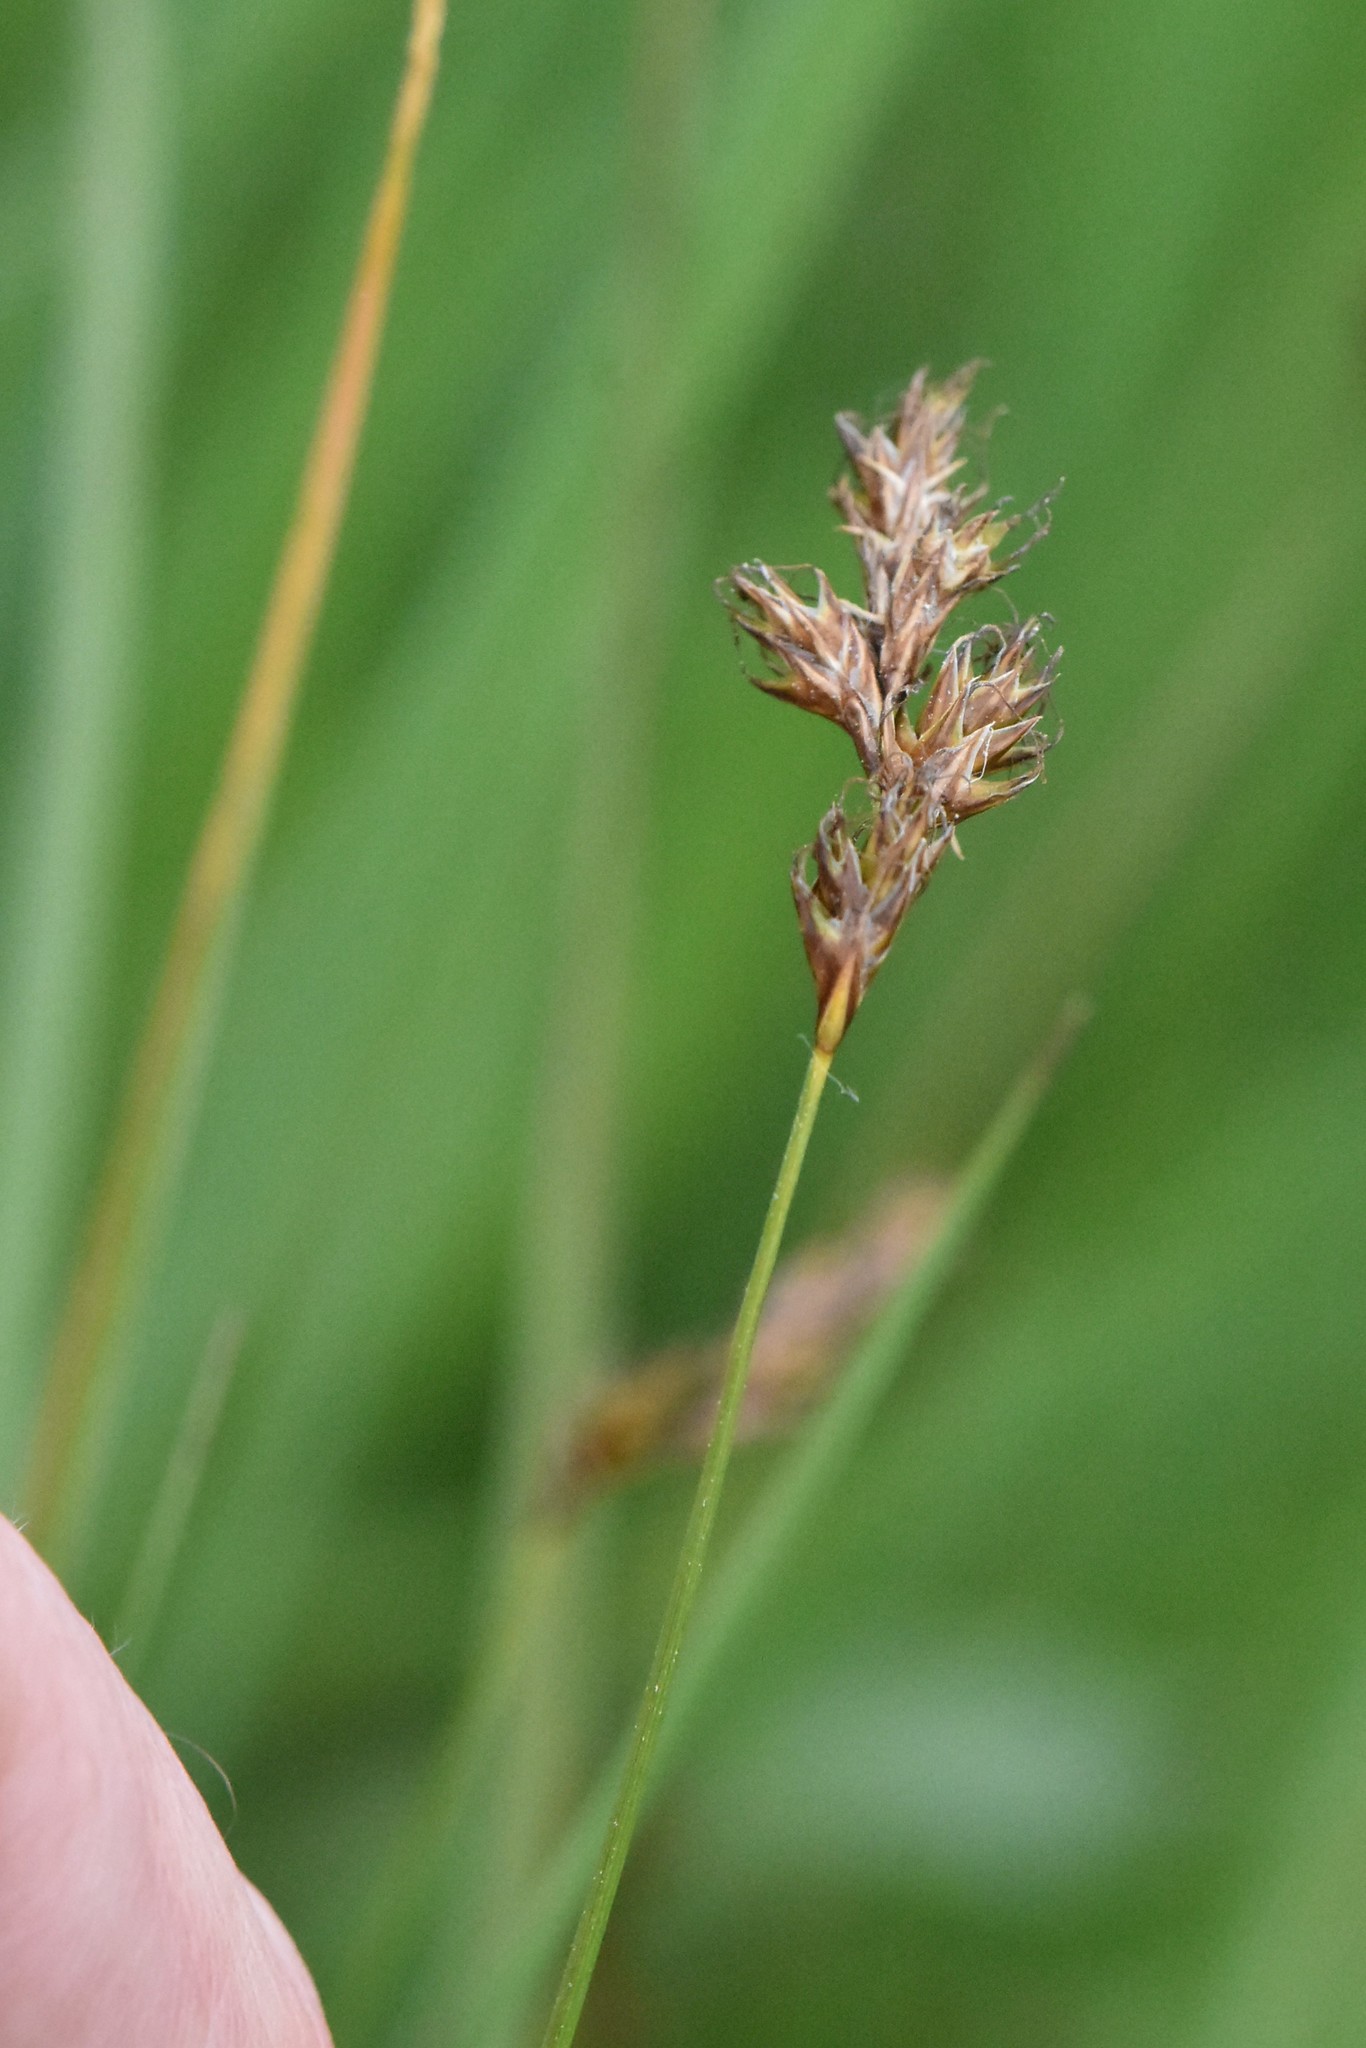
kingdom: Plantae
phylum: Tracheophyta
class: Liliopsida
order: Poales
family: Cyperaceae
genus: Carex
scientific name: Carex praecox
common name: Early sedge
